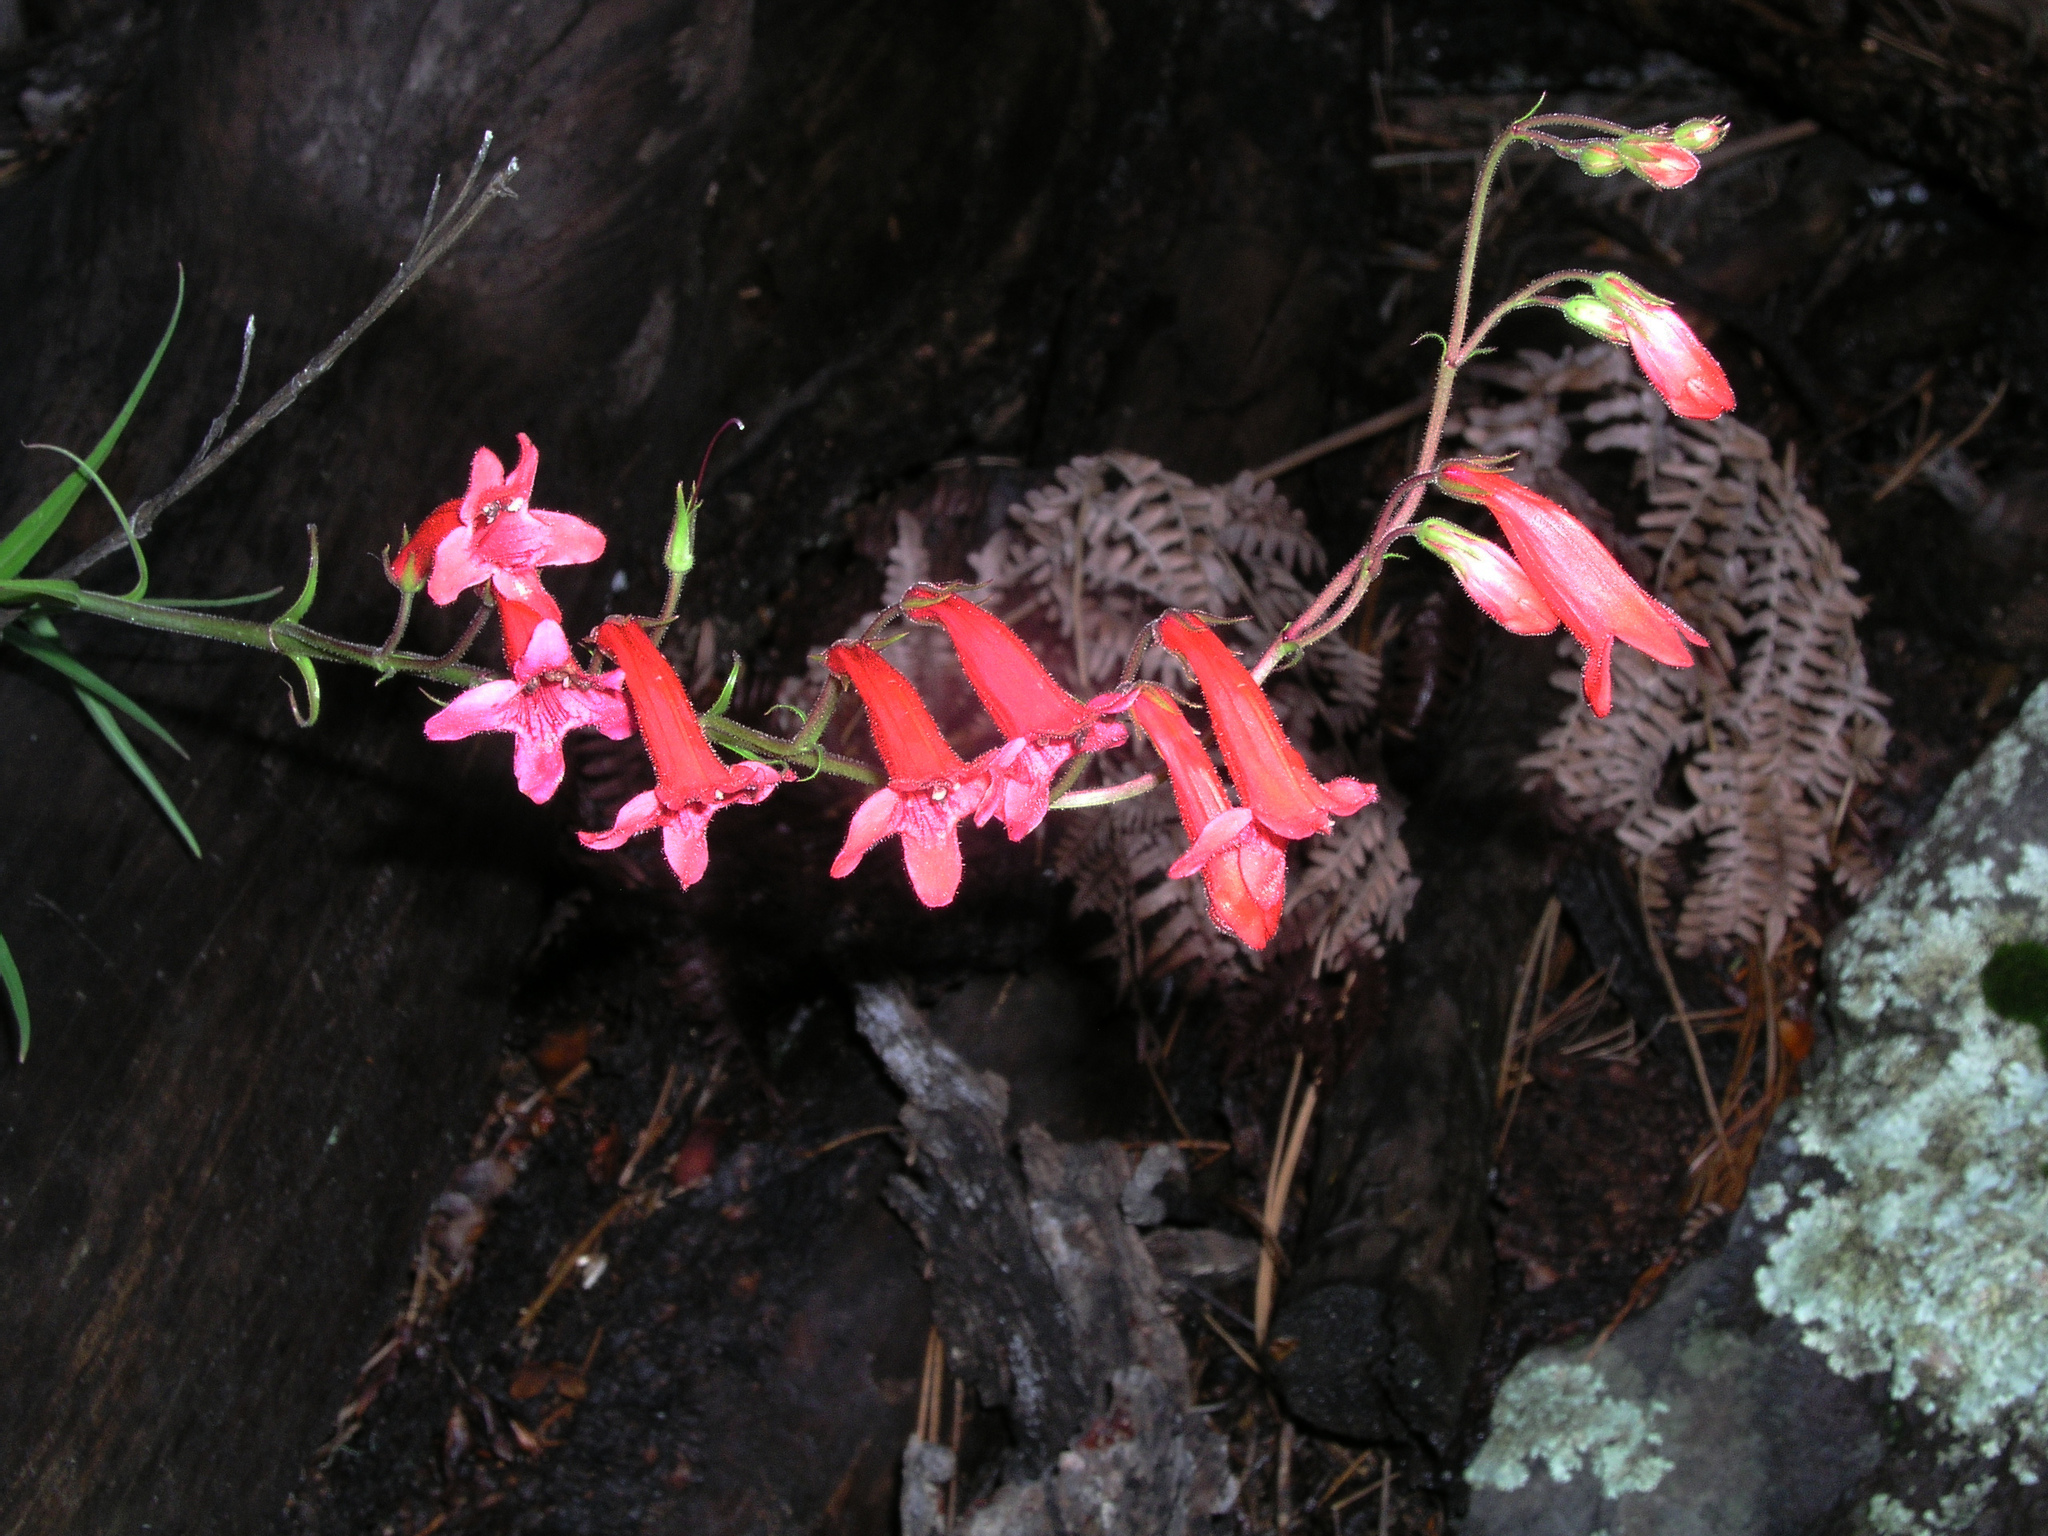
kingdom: Plantae
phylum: Tracheophyta
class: Magnoliopsida
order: Lamiales
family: Plantaginaceae
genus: Penstemon
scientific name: Penstemon miniatus
